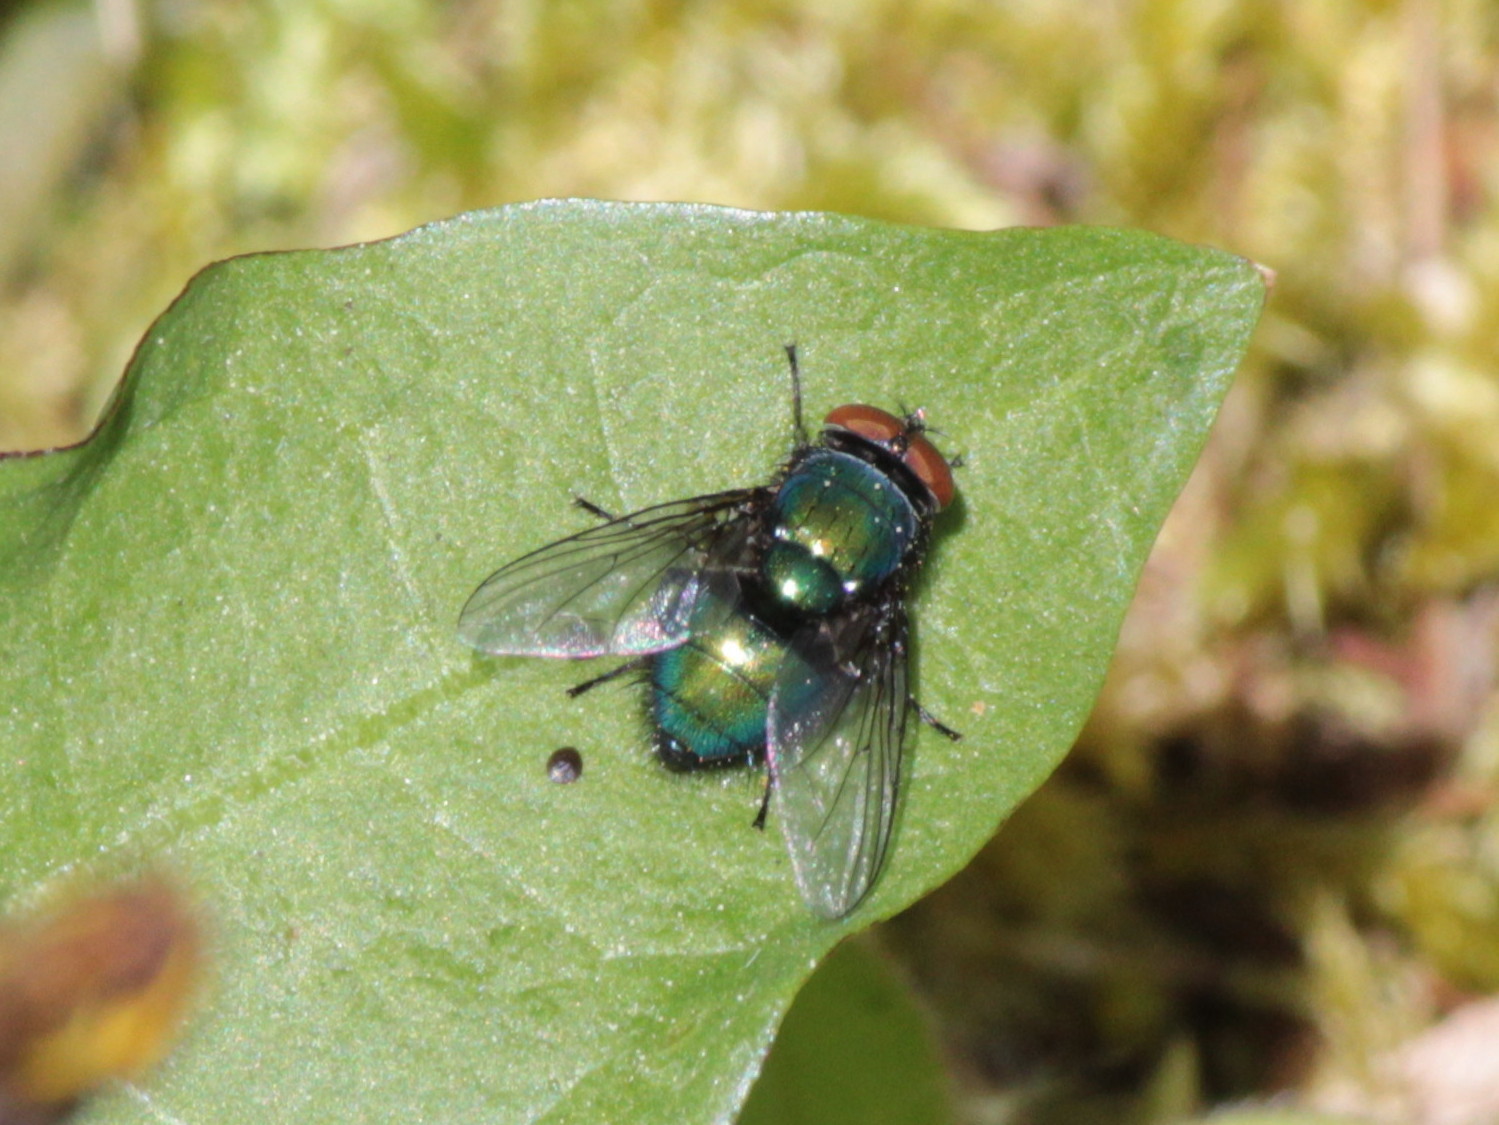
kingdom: Animalia
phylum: Arthropoda
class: Insecta
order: Diptera
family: Calliphoridae
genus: Lucilia
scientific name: Lucilia illustris
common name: Illustrious greenbottle
